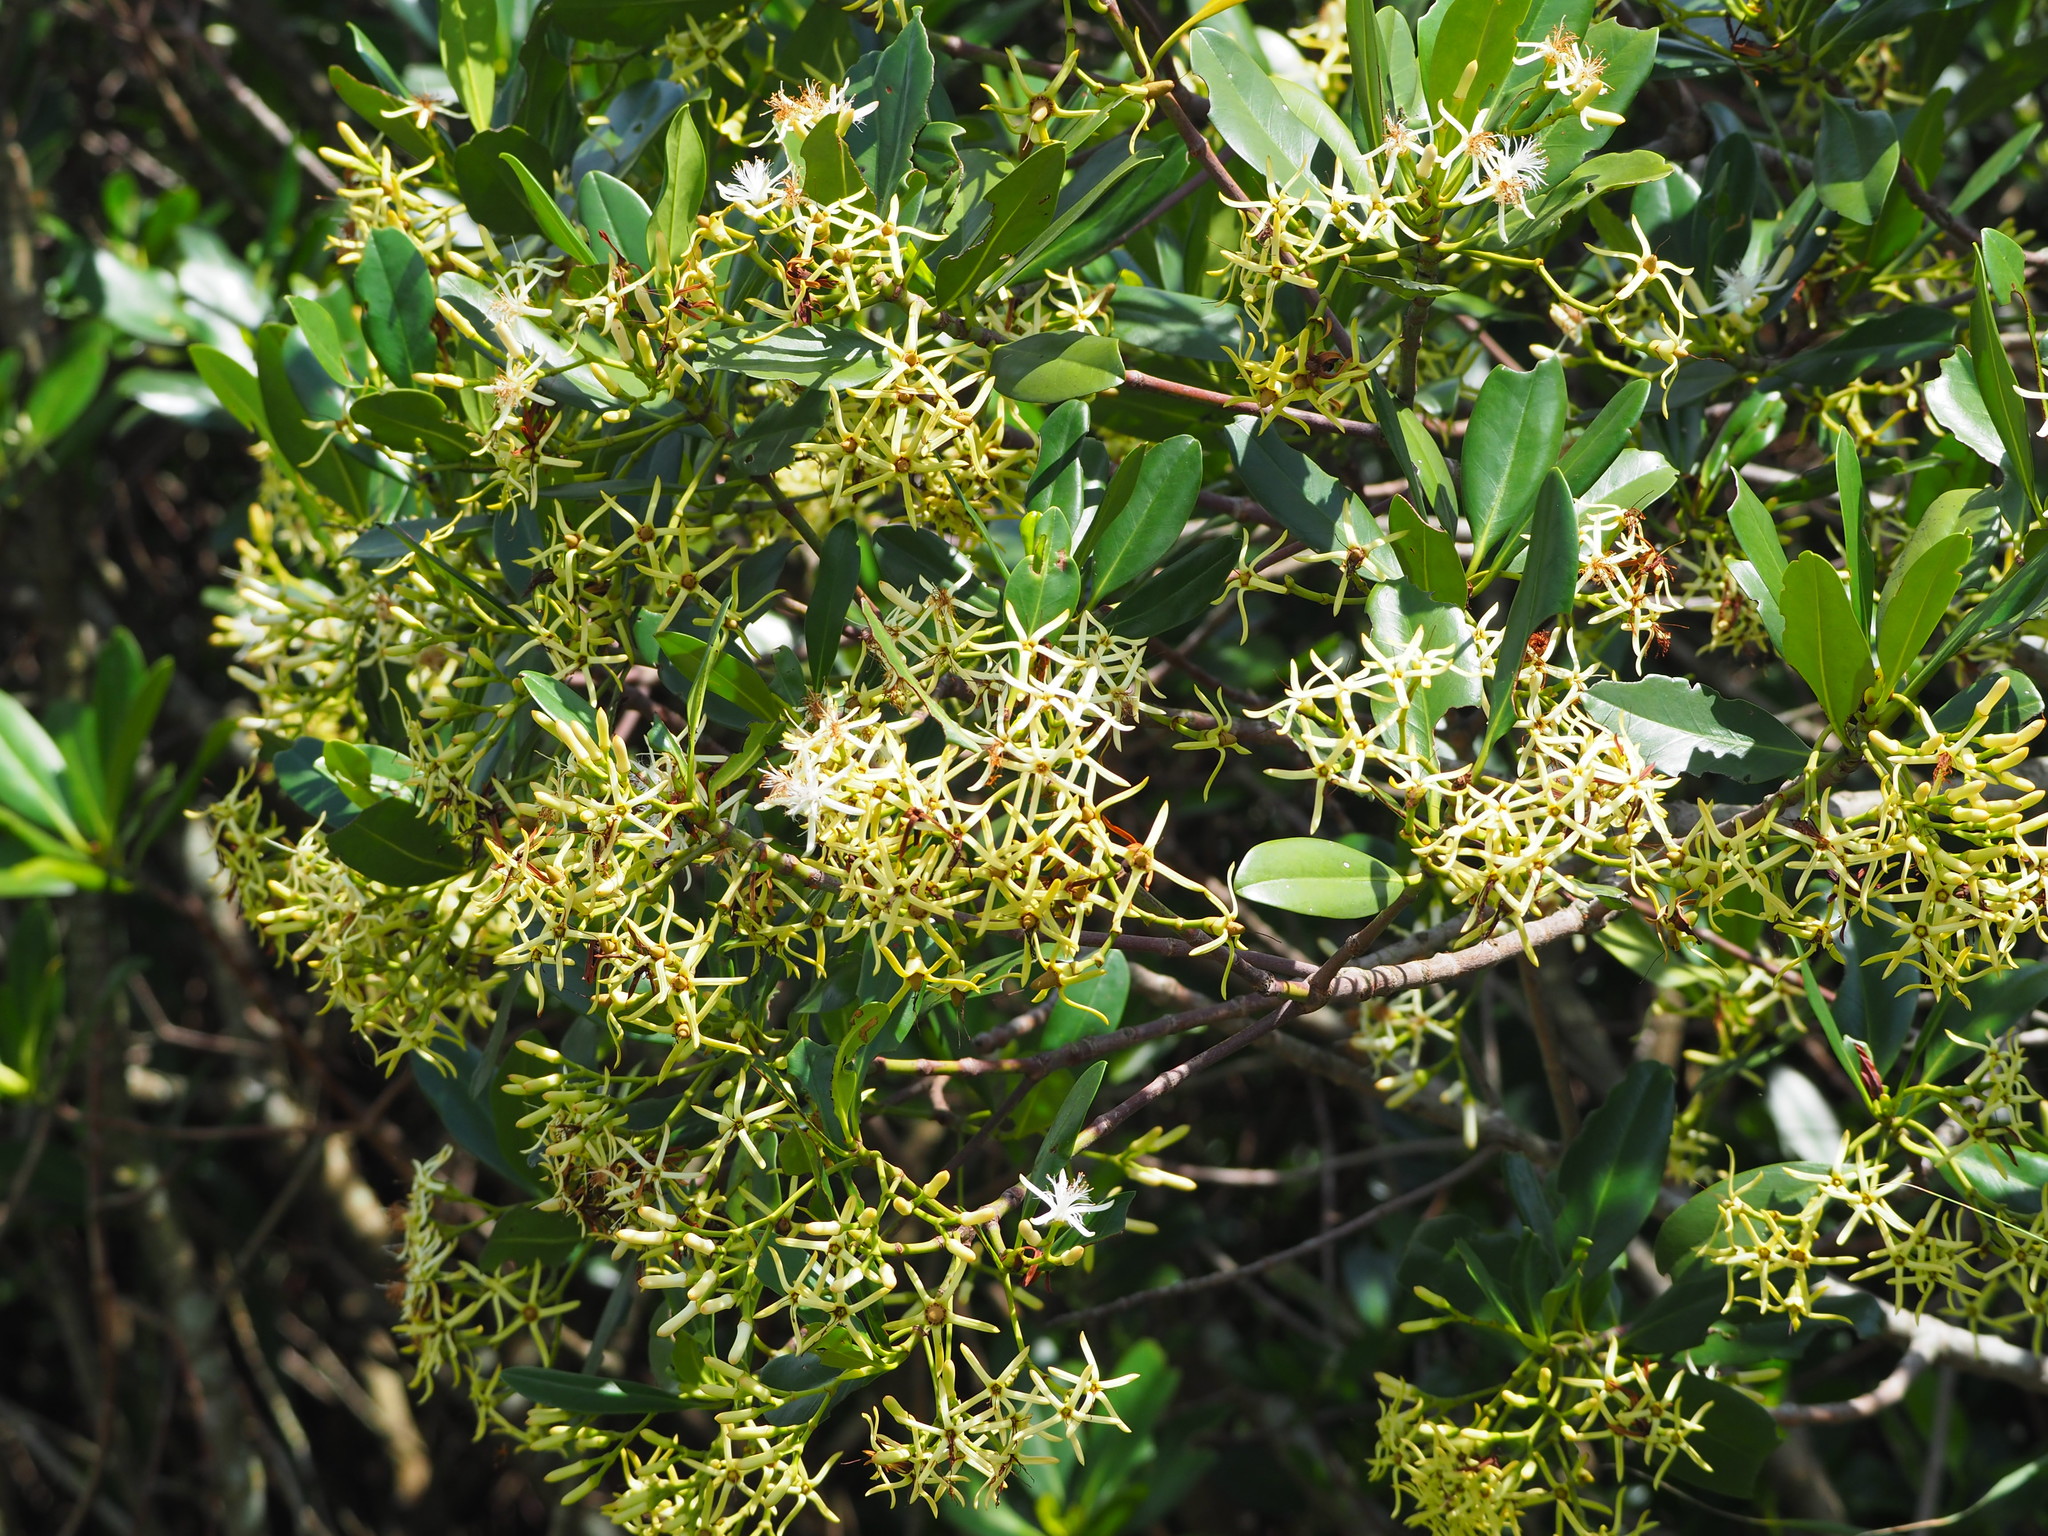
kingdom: Plantae
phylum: Tracheophyta
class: Magnoliopsida
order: Malpighiales
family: Rhizophoraceae
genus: Kandelia
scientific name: Kandelia obovata
